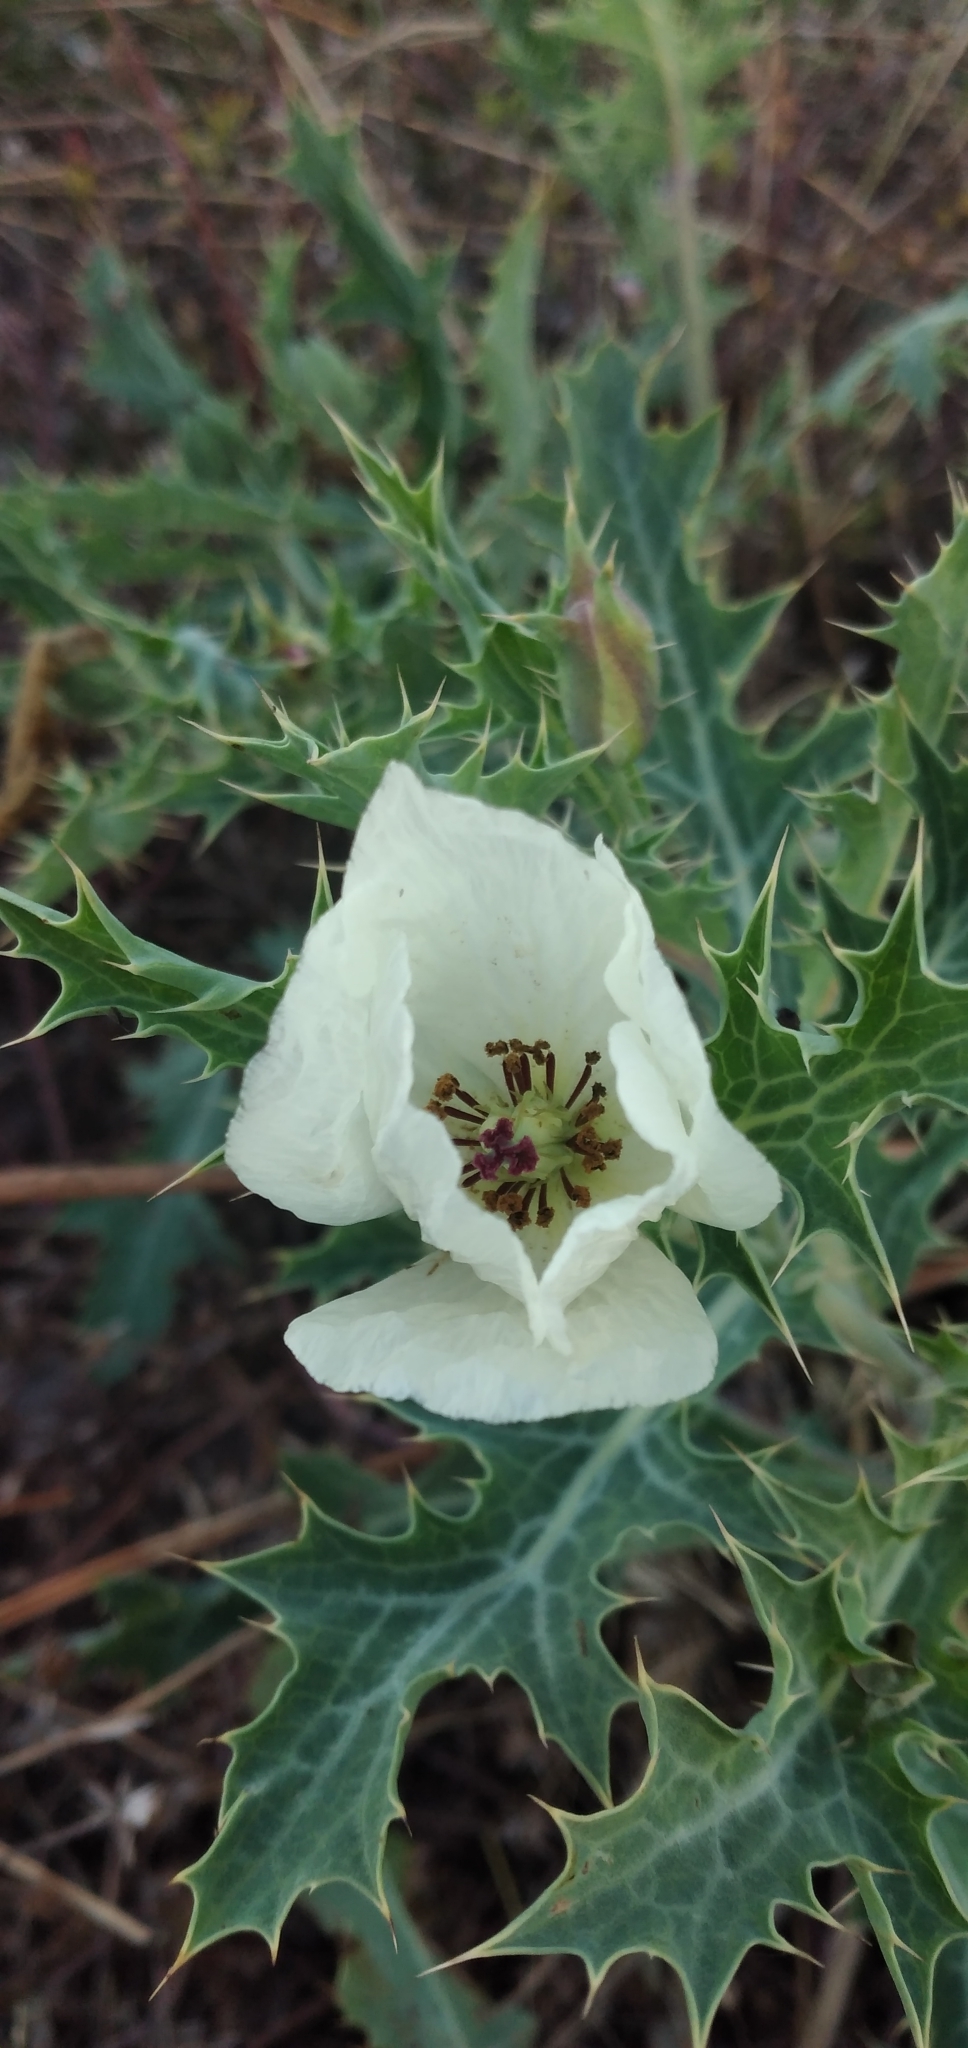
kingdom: Plantae
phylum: Tracheophyta
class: Magnoliopsida
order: Ranunculales
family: Papaveraceae
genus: Argemone
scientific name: Argemone subfusiformis
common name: American-poppy
